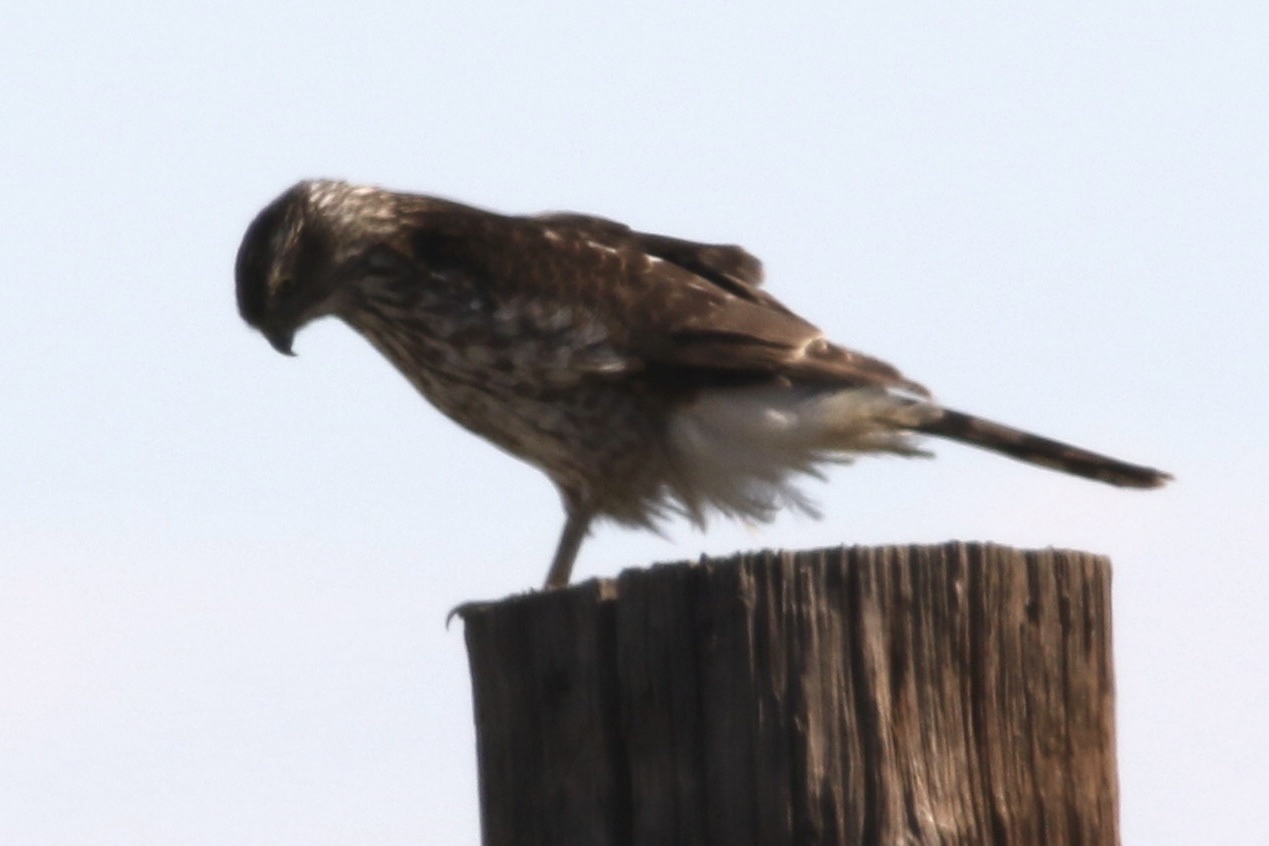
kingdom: Animalia
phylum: Chordata
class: Aves
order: Accipitriformes
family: Accipitridae
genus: Accipiter
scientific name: Accipiter cooperii
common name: Cooper's hawk
